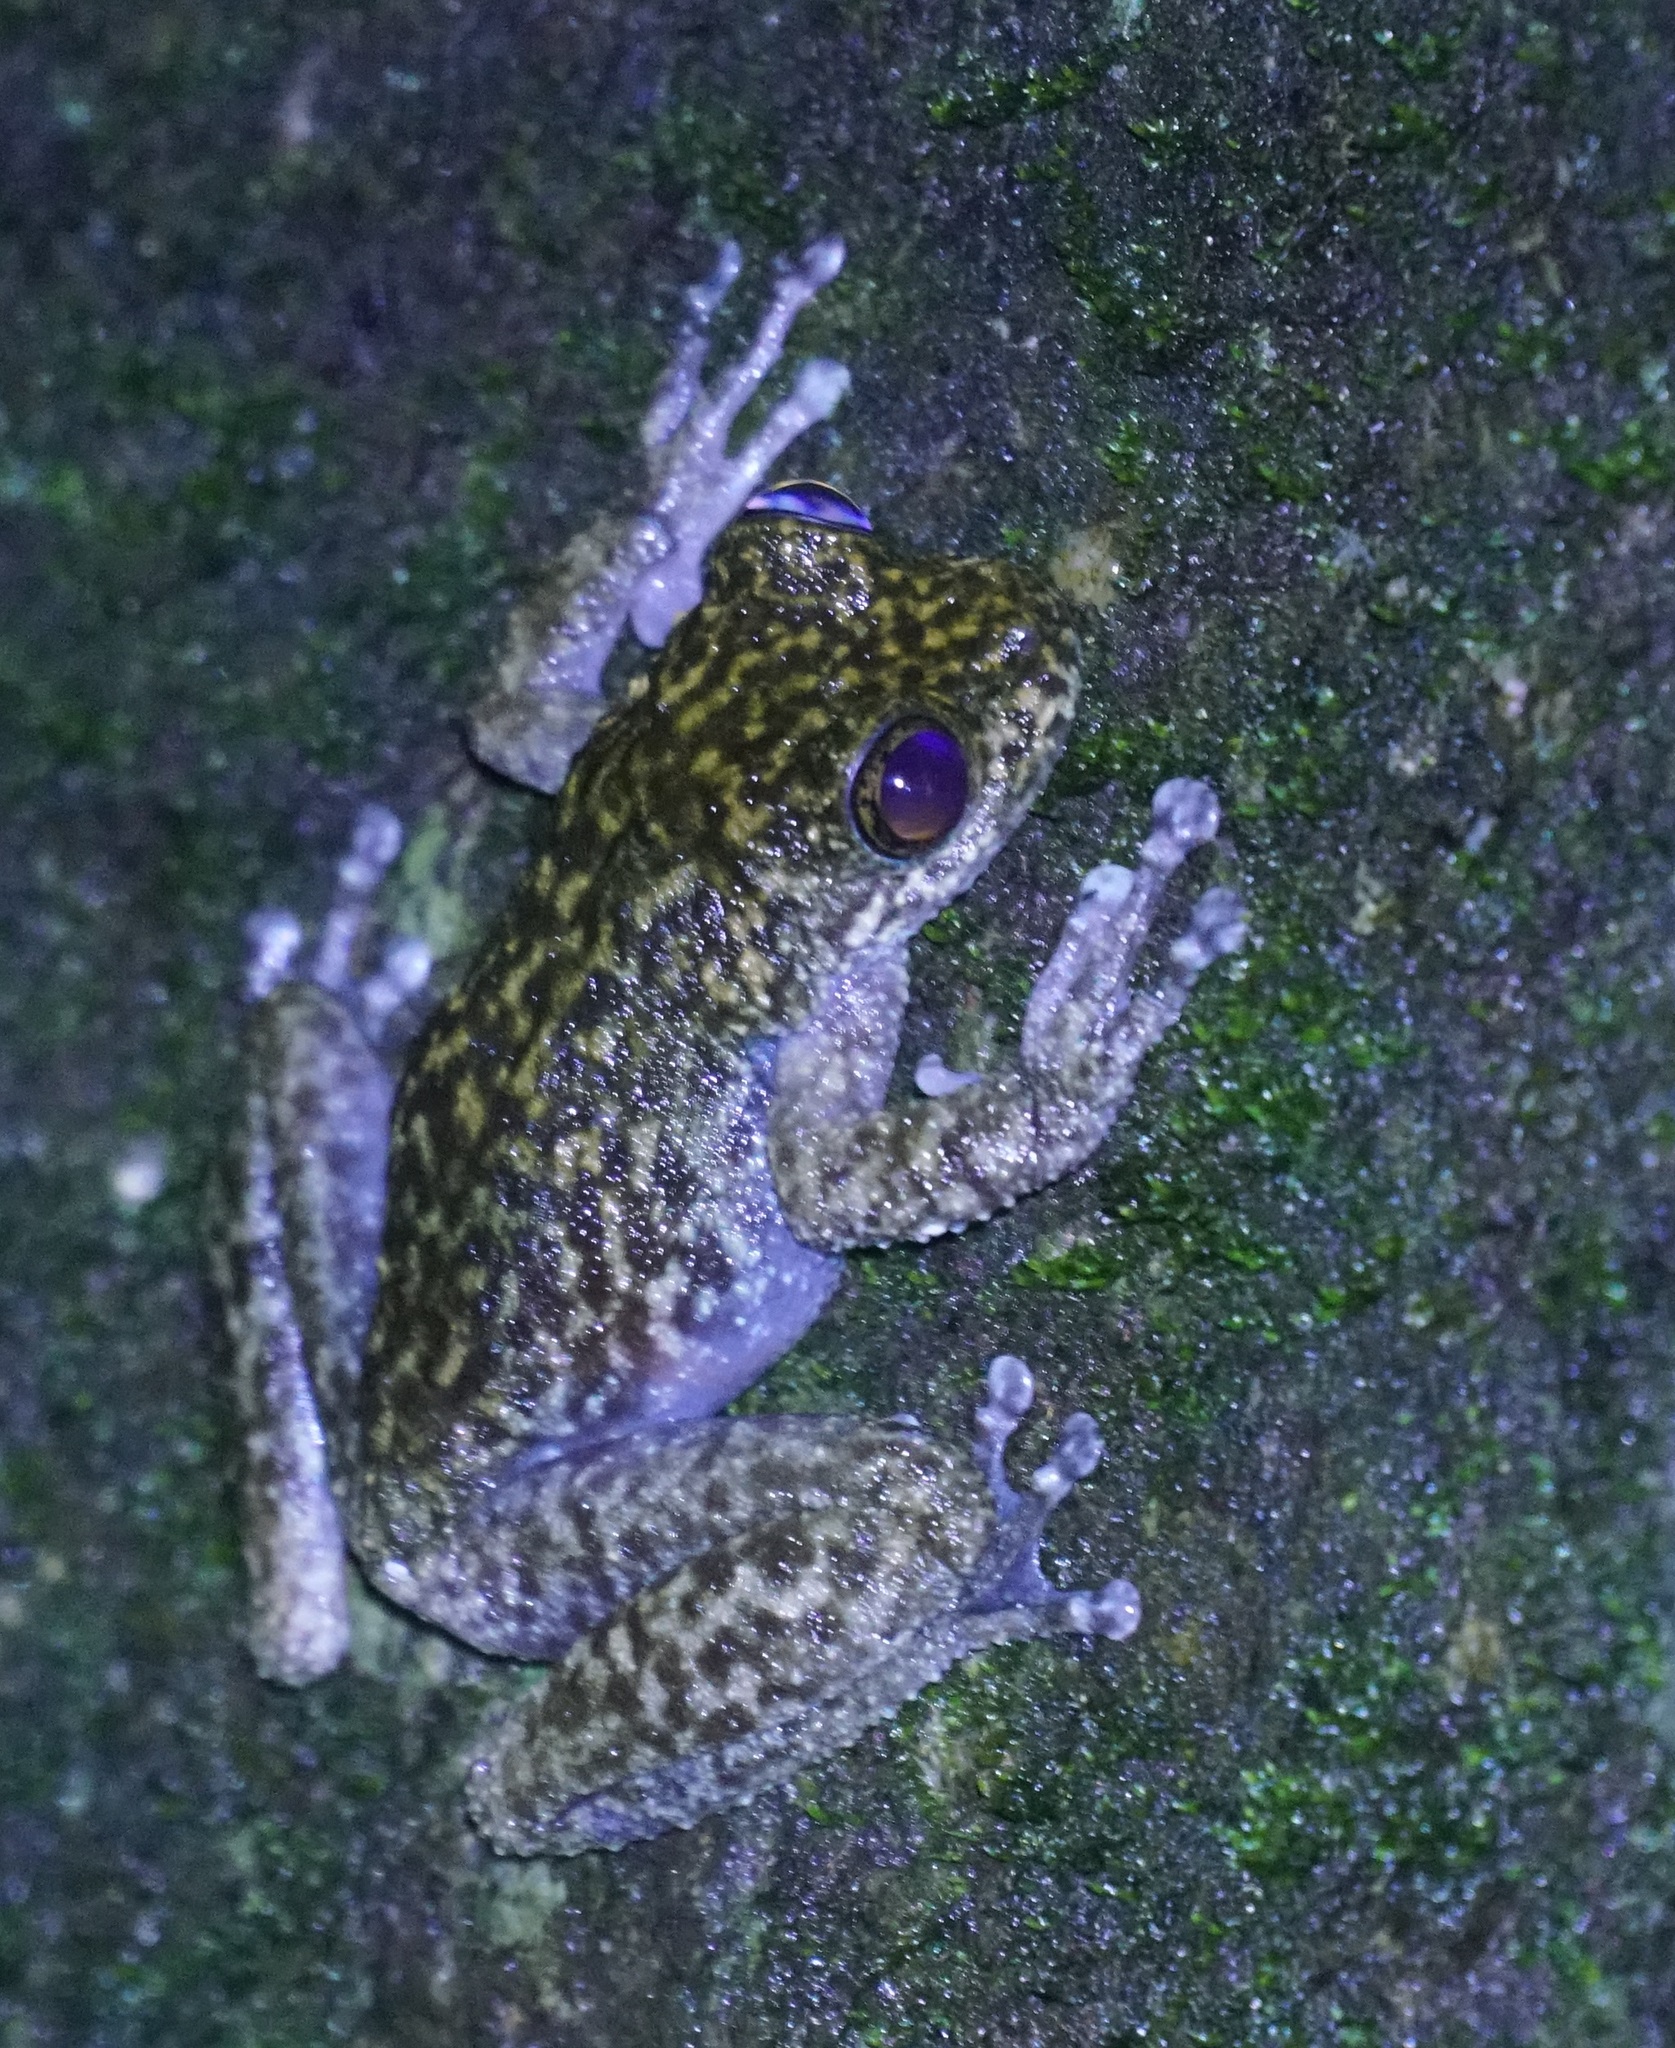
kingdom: Animalia
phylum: Chordata
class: Amphibia
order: Anura
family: Pelodryadidae
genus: Ranoidea
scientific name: Ranoidea nannotis
